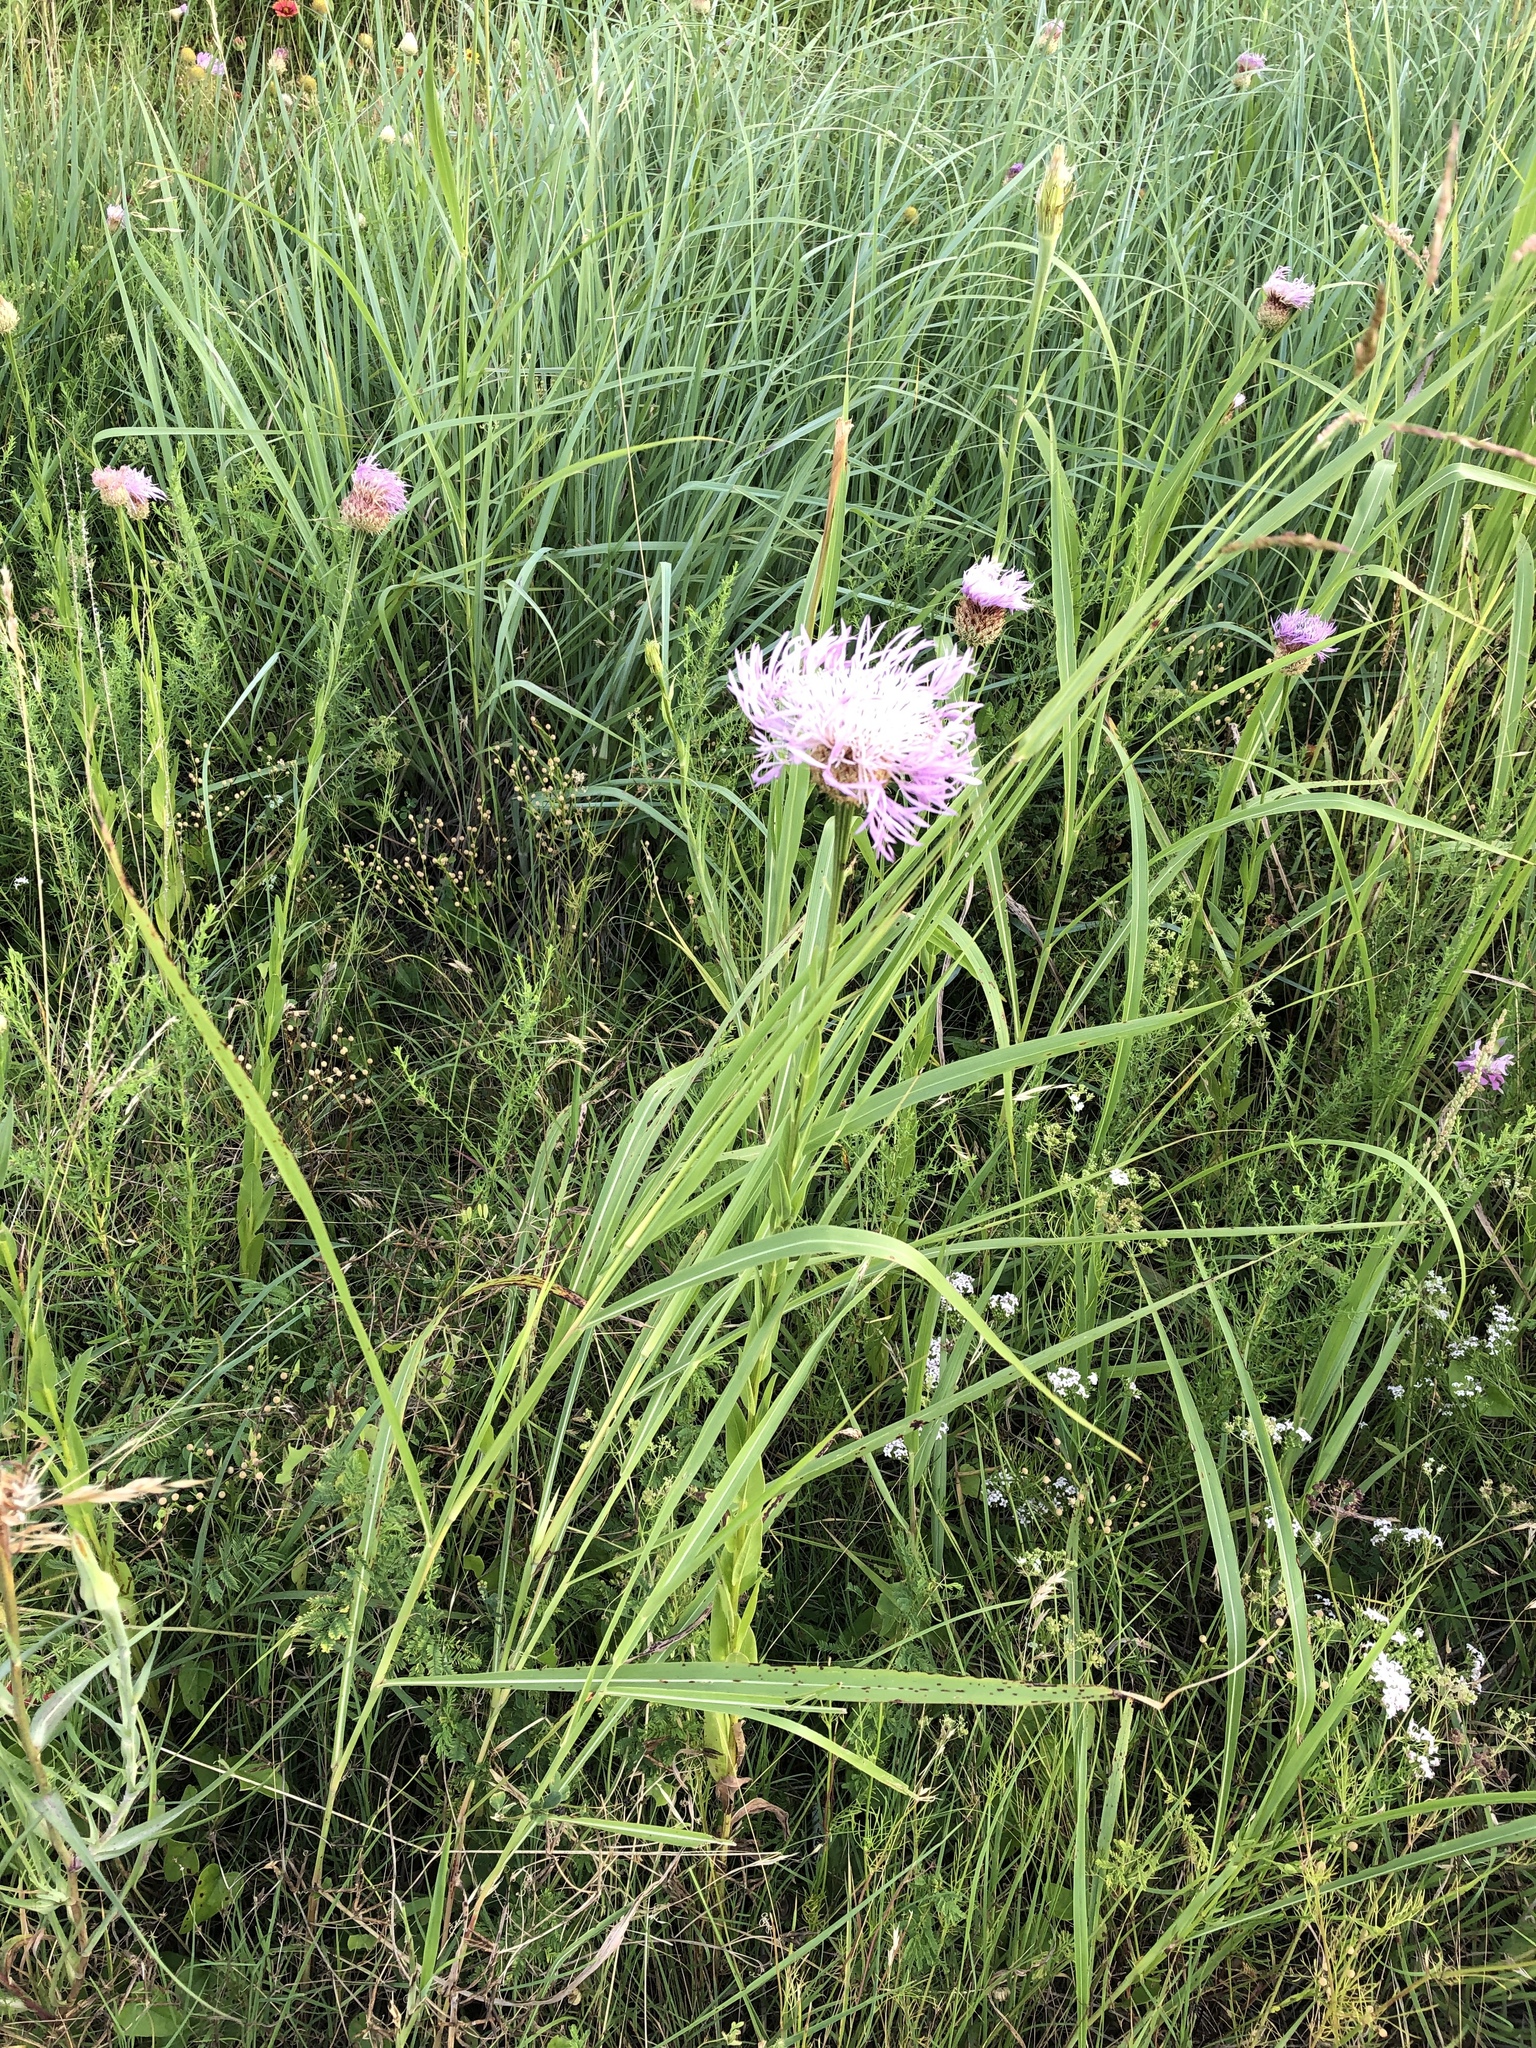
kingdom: Plantae
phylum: Tracheophyta
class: Magnoliopsida
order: Asterales
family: Asteraceae
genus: Plectocephalus
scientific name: Plectocephalus americanus
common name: American basket-flower
